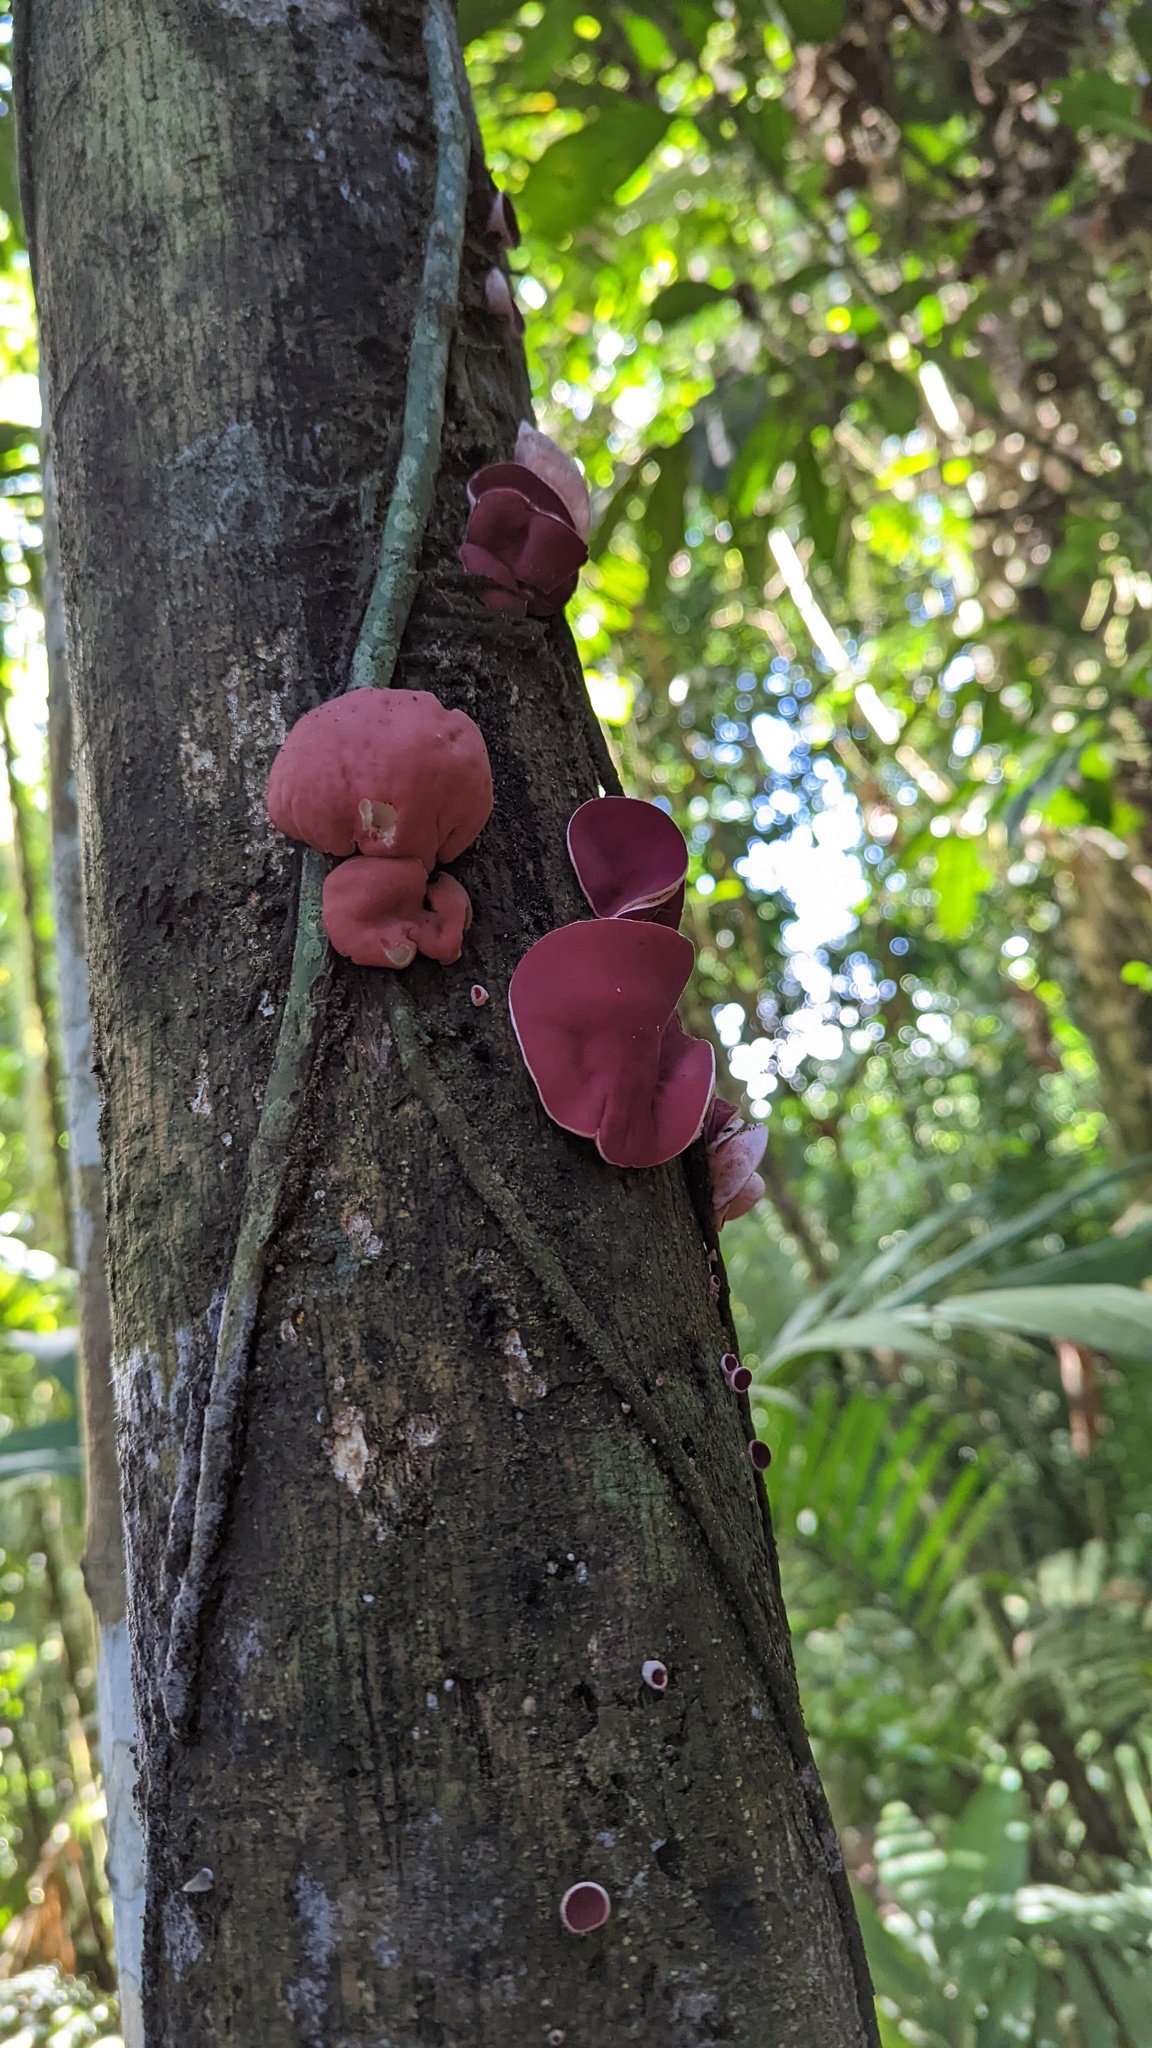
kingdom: Fungi
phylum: Ascomycota
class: Pezizomycetes
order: Pezizales
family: Sarcoscyphaceae
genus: Phillipsia
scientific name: Phillipsia domingensis
